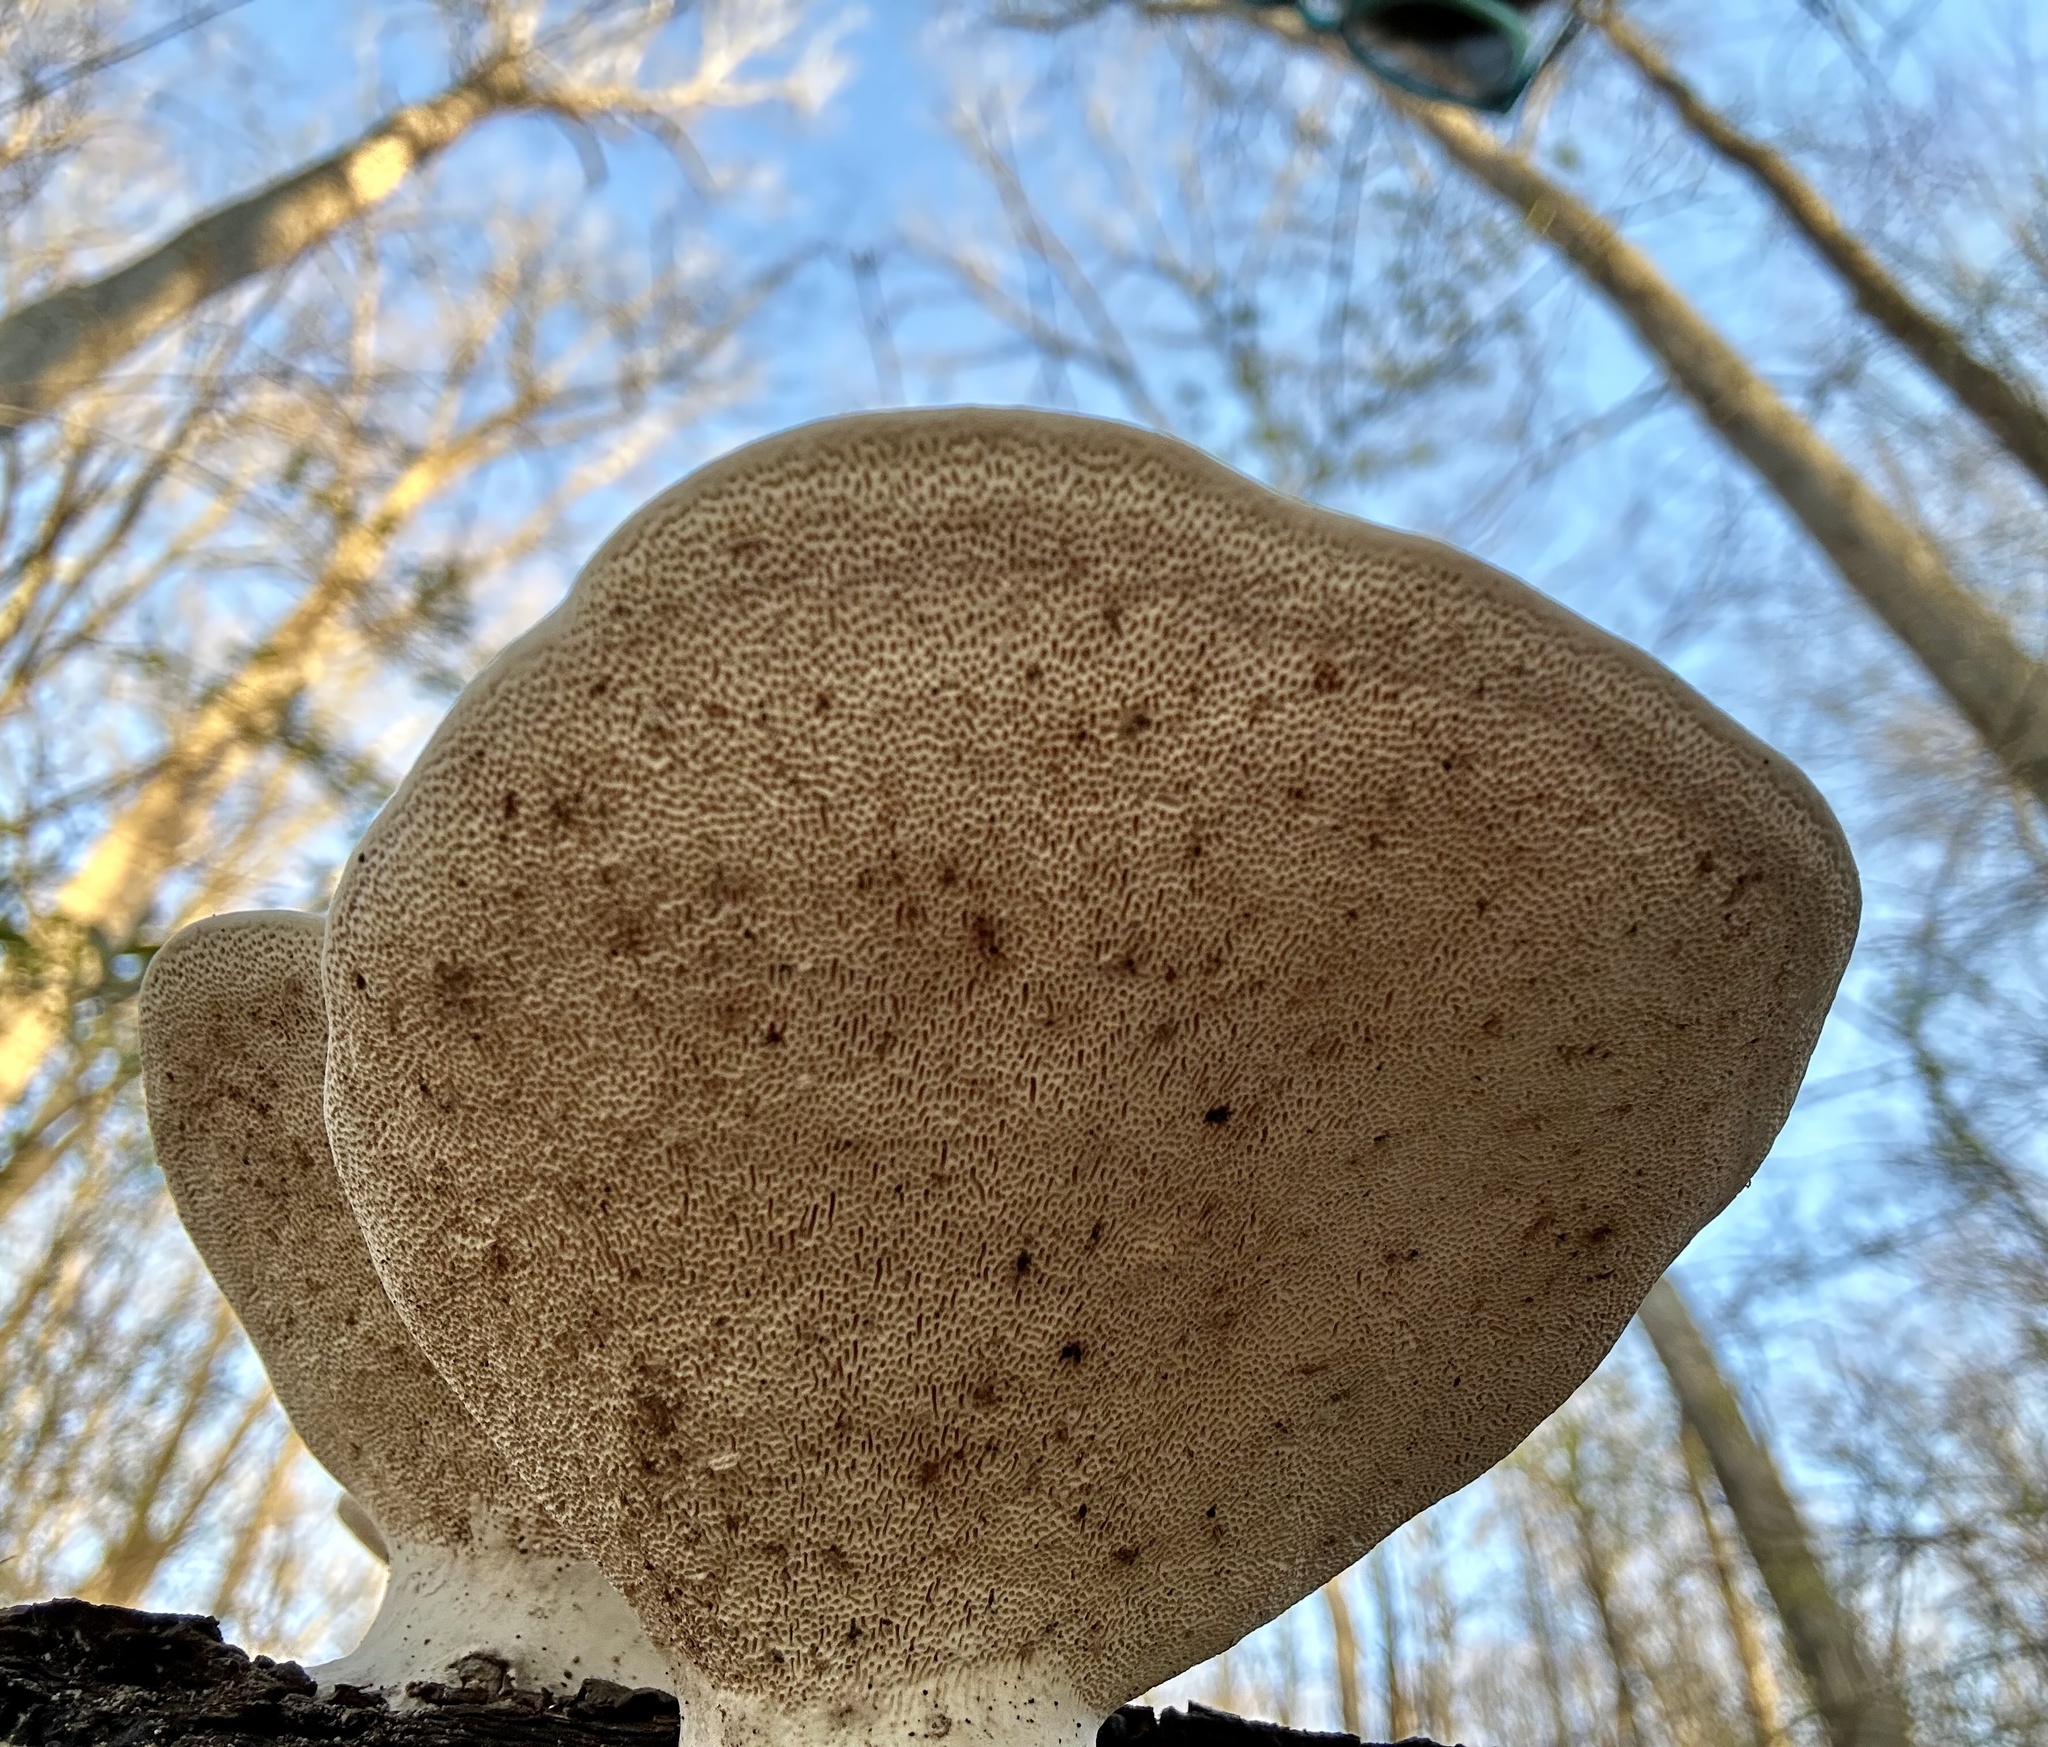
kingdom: Fungi
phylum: Basidiomycota
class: Agaricomycetes
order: Polyporales
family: Polyporaceae
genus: Trametes
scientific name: Trametes
